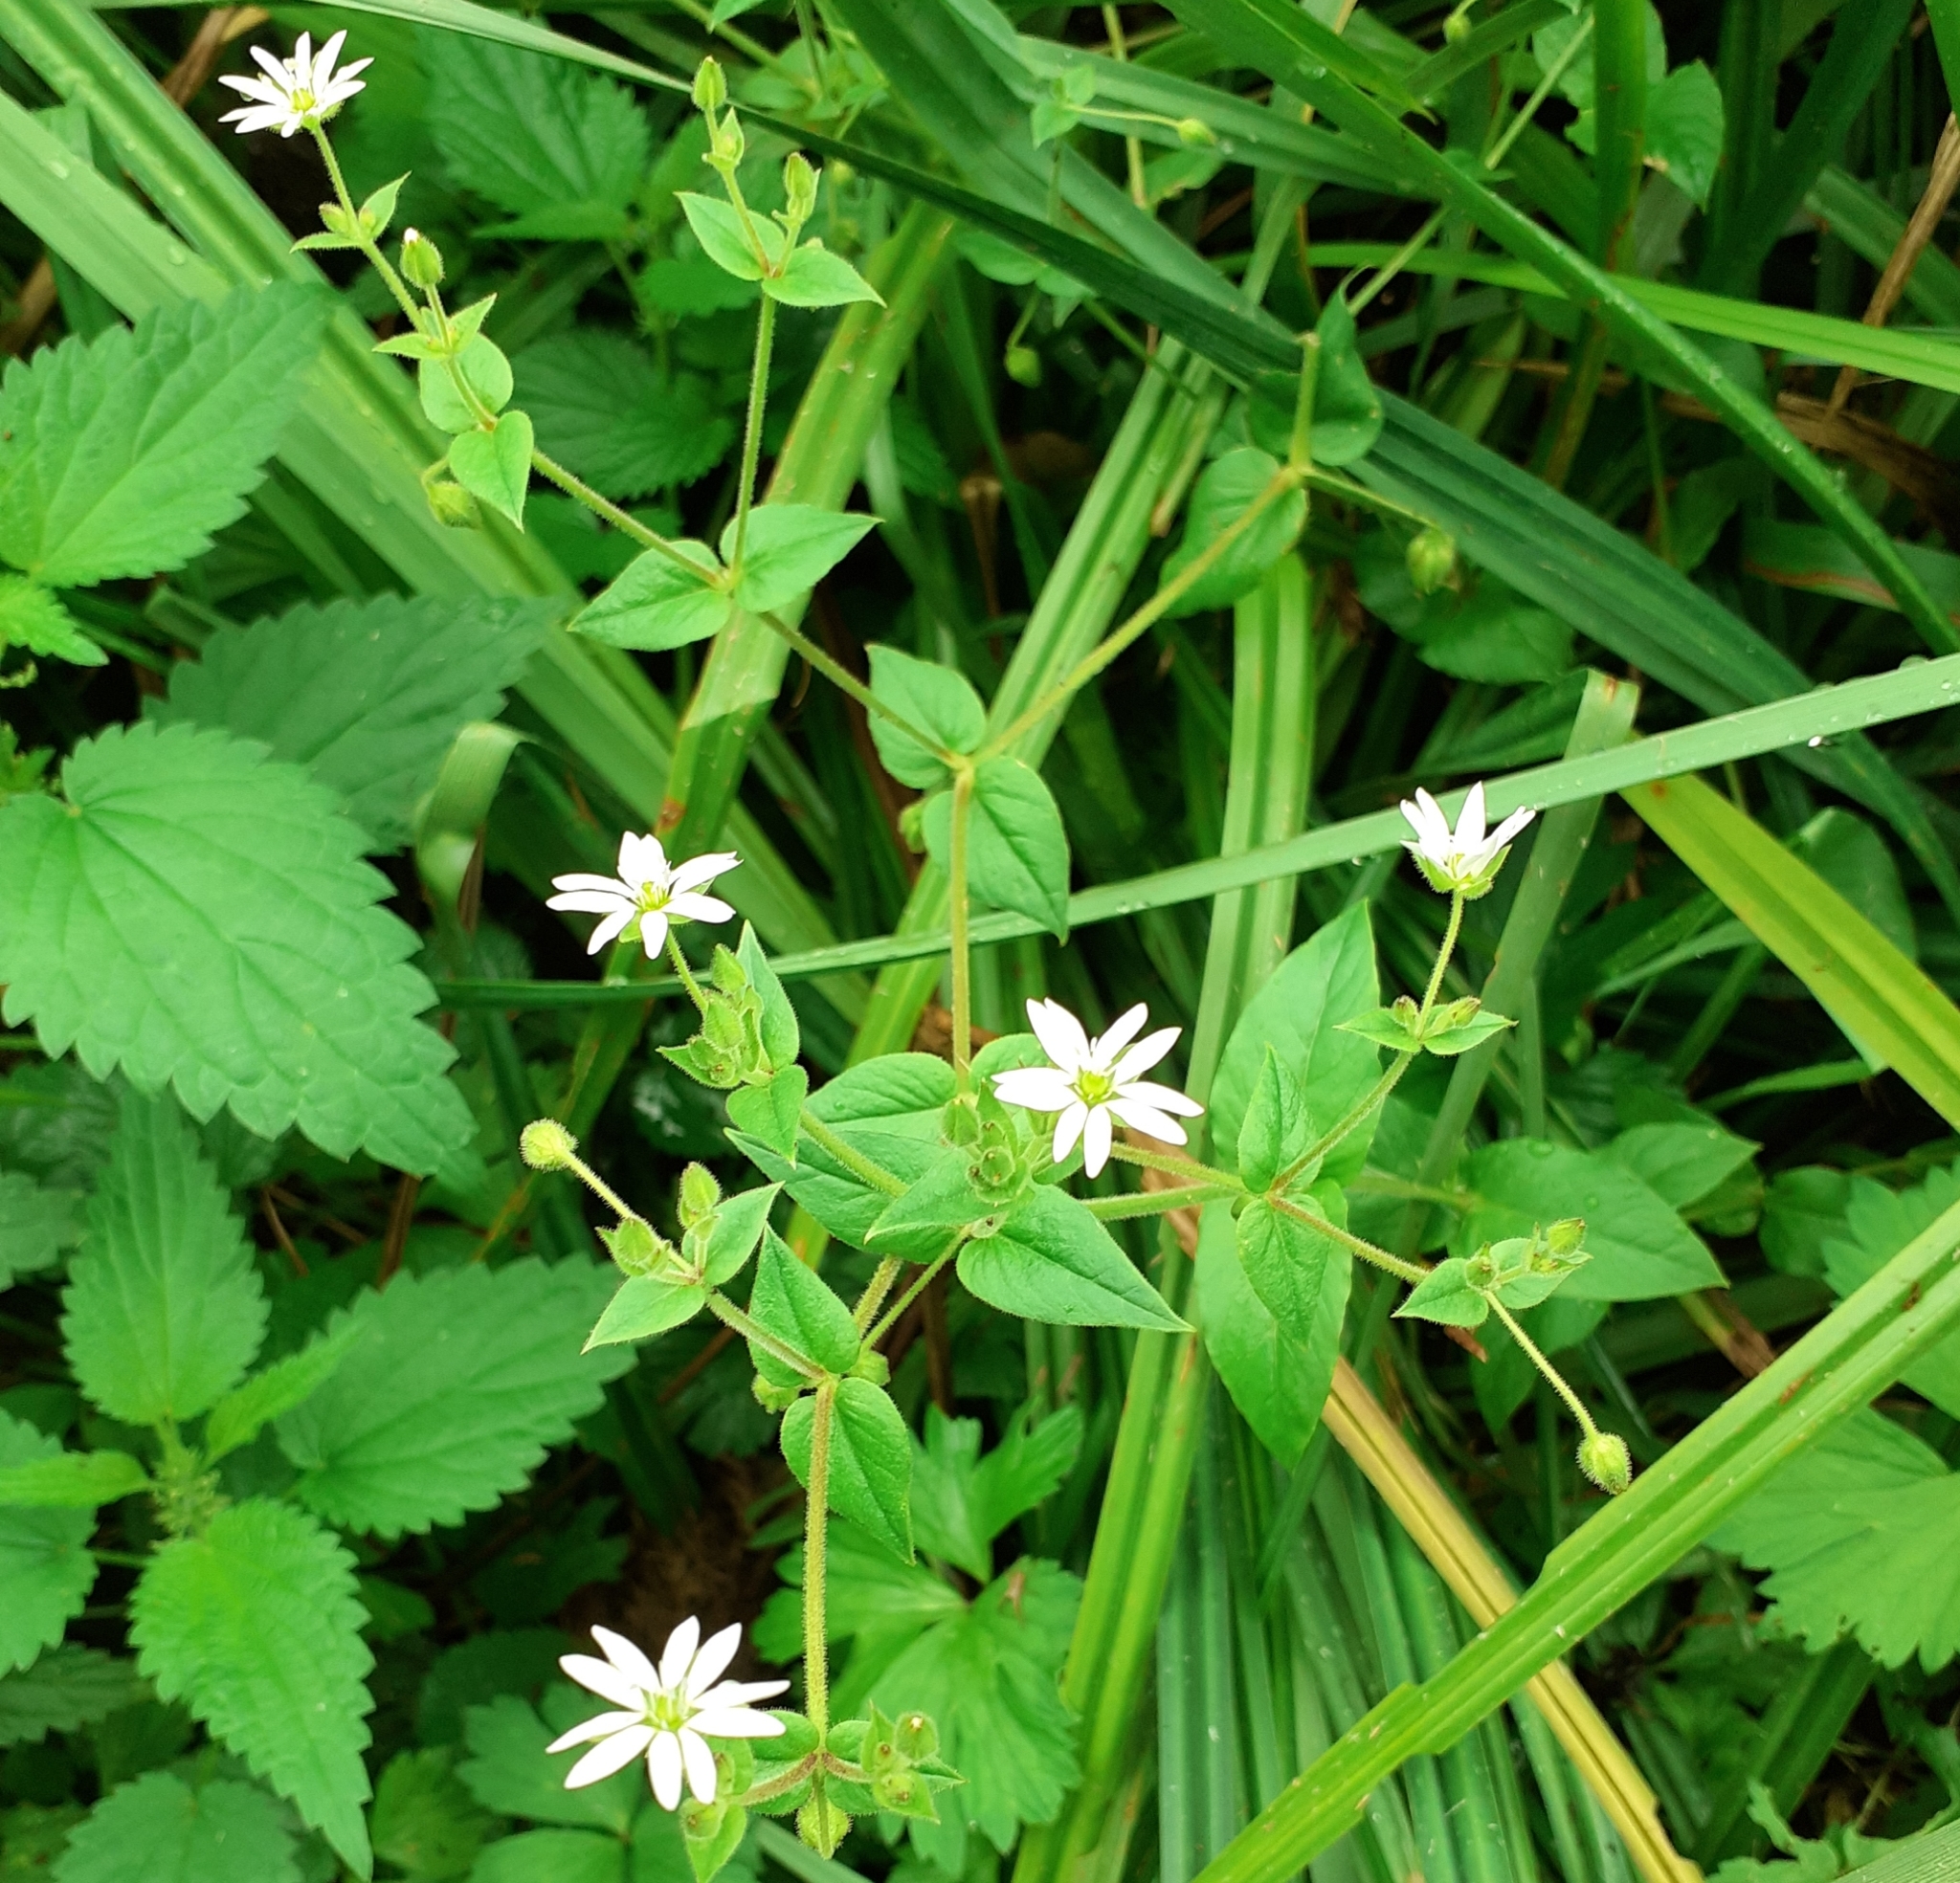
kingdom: Plantae
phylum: Tracheophyta
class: Magnoliopsida
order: Caryophyllales
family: Caryophyllaceae
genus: Stellaria
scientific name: Stellaria aquatica
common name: Water chickweed
